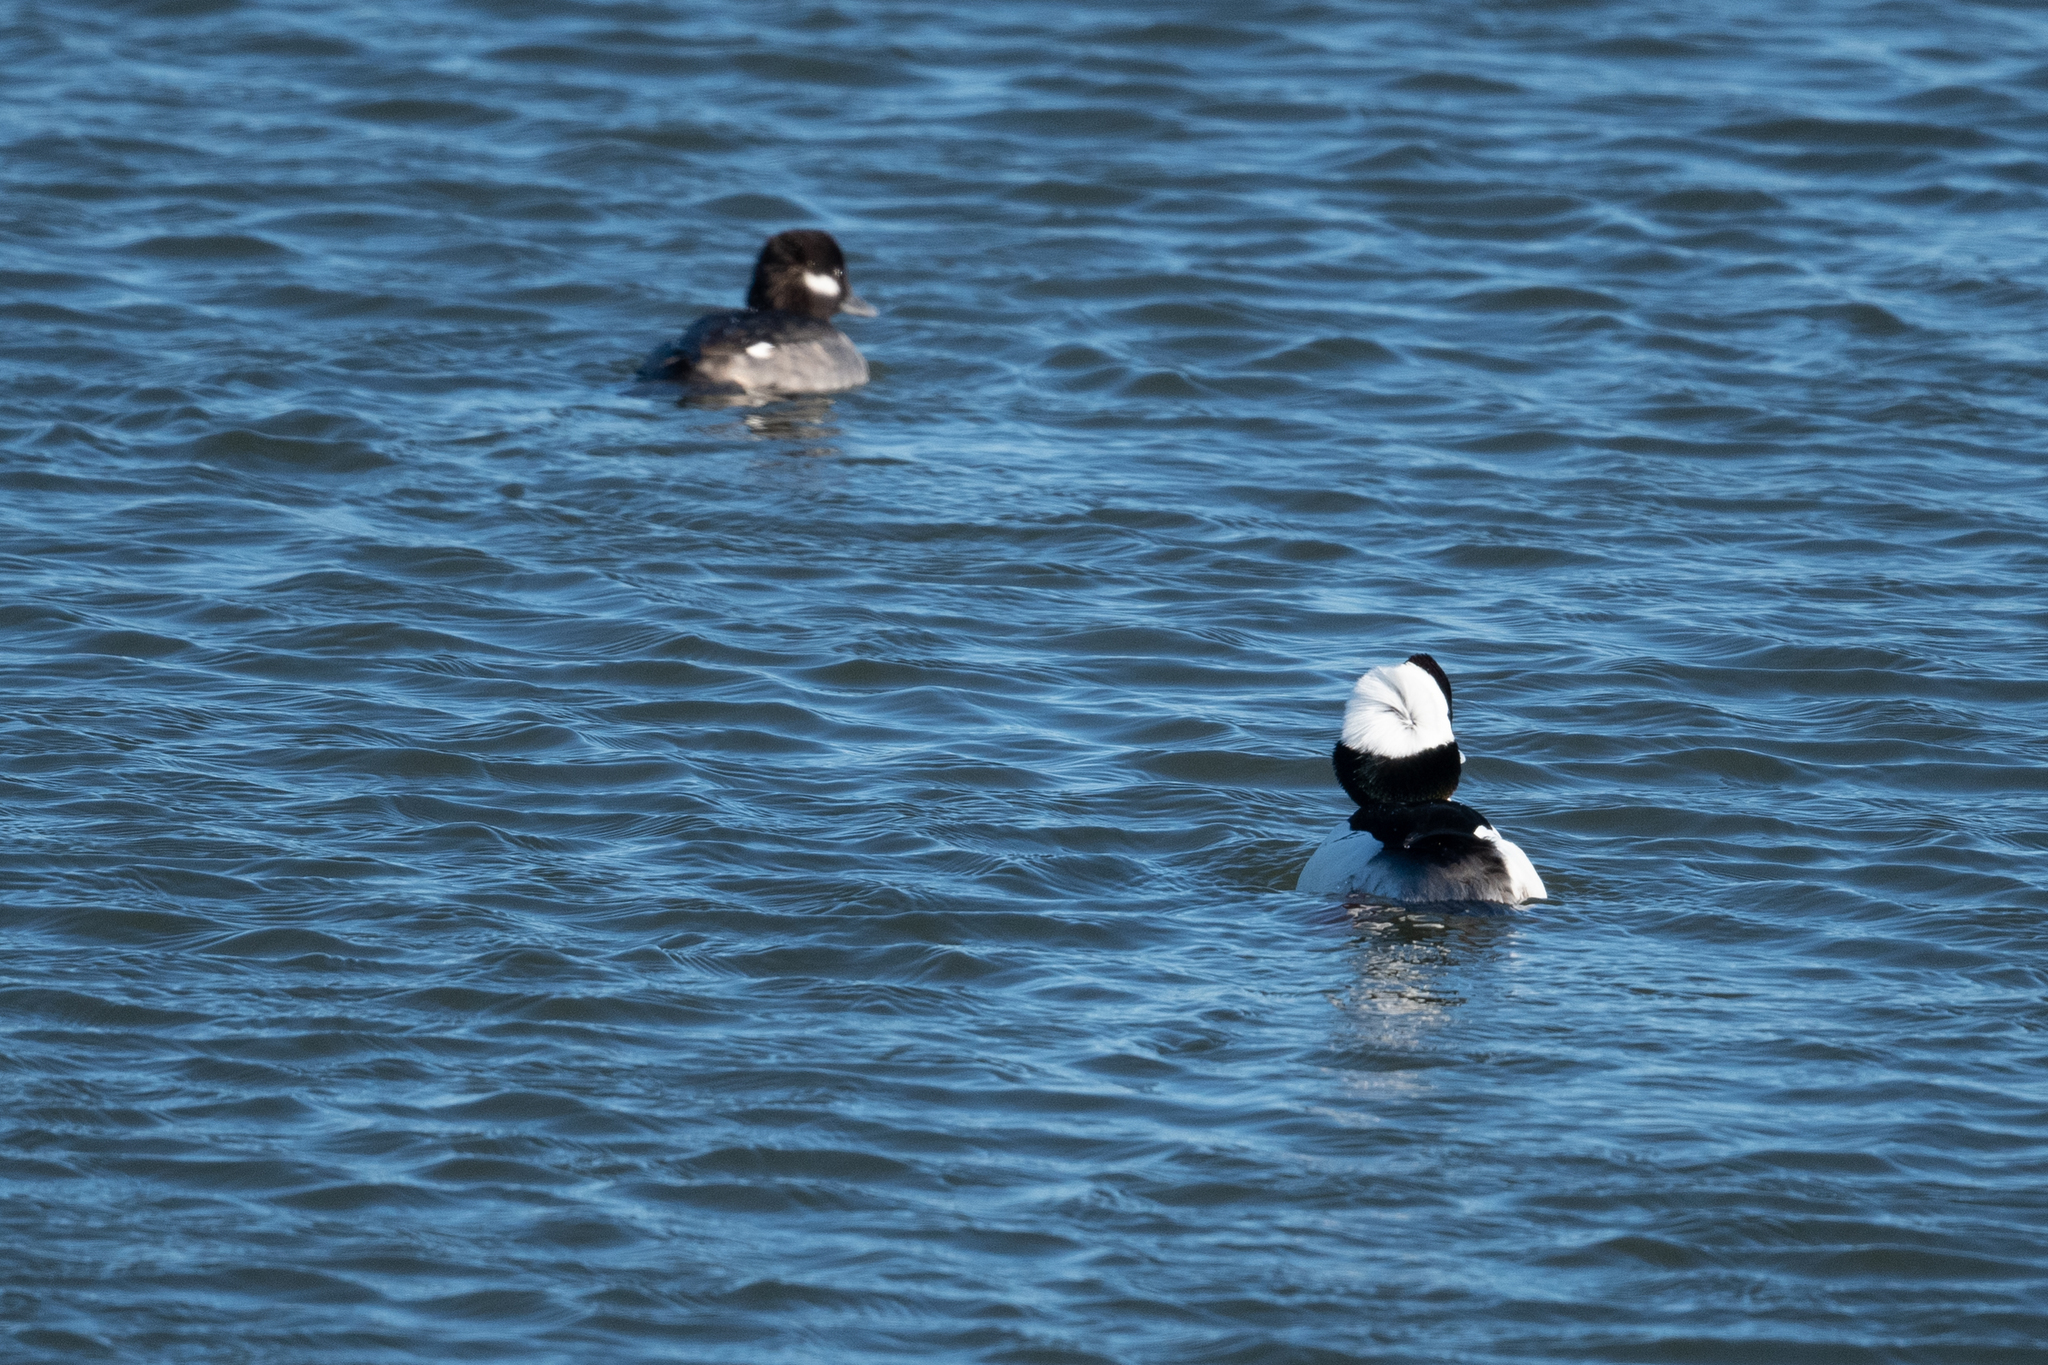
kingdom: Animalia
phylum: Chordata
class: Aves
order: Anseriformes
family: Anatidae
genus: Bucephala
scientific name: Bucephala albeola
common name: Bufflehead
